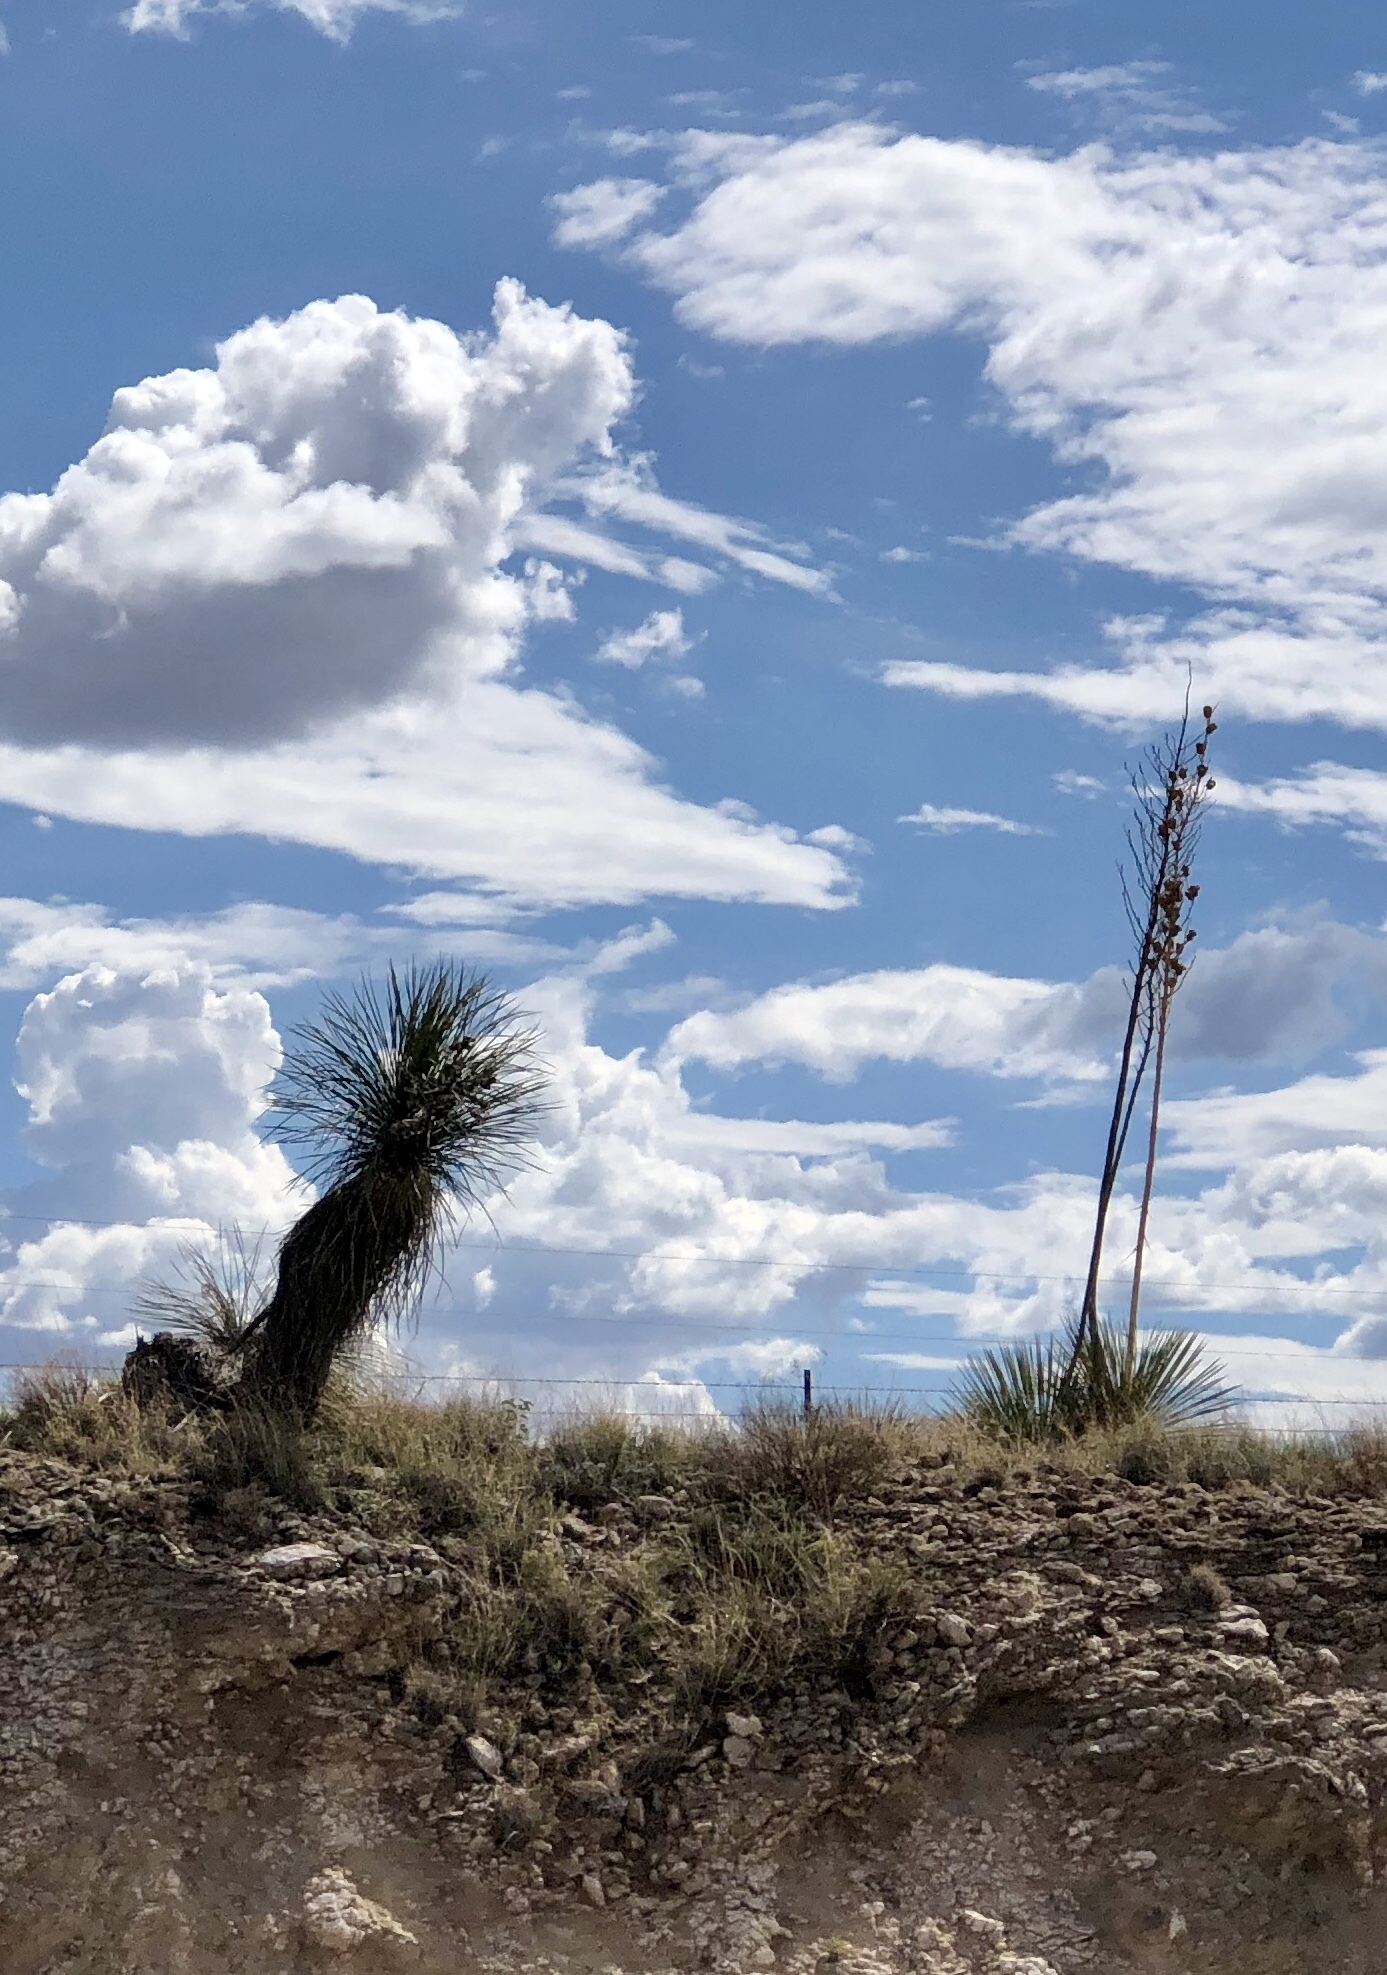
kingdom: Plantae
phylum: Tracheophyta
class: Liliopsida
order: Asparagales
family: Asparagaceae
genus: Yucca
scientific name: Yucca elata
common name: Palmella
